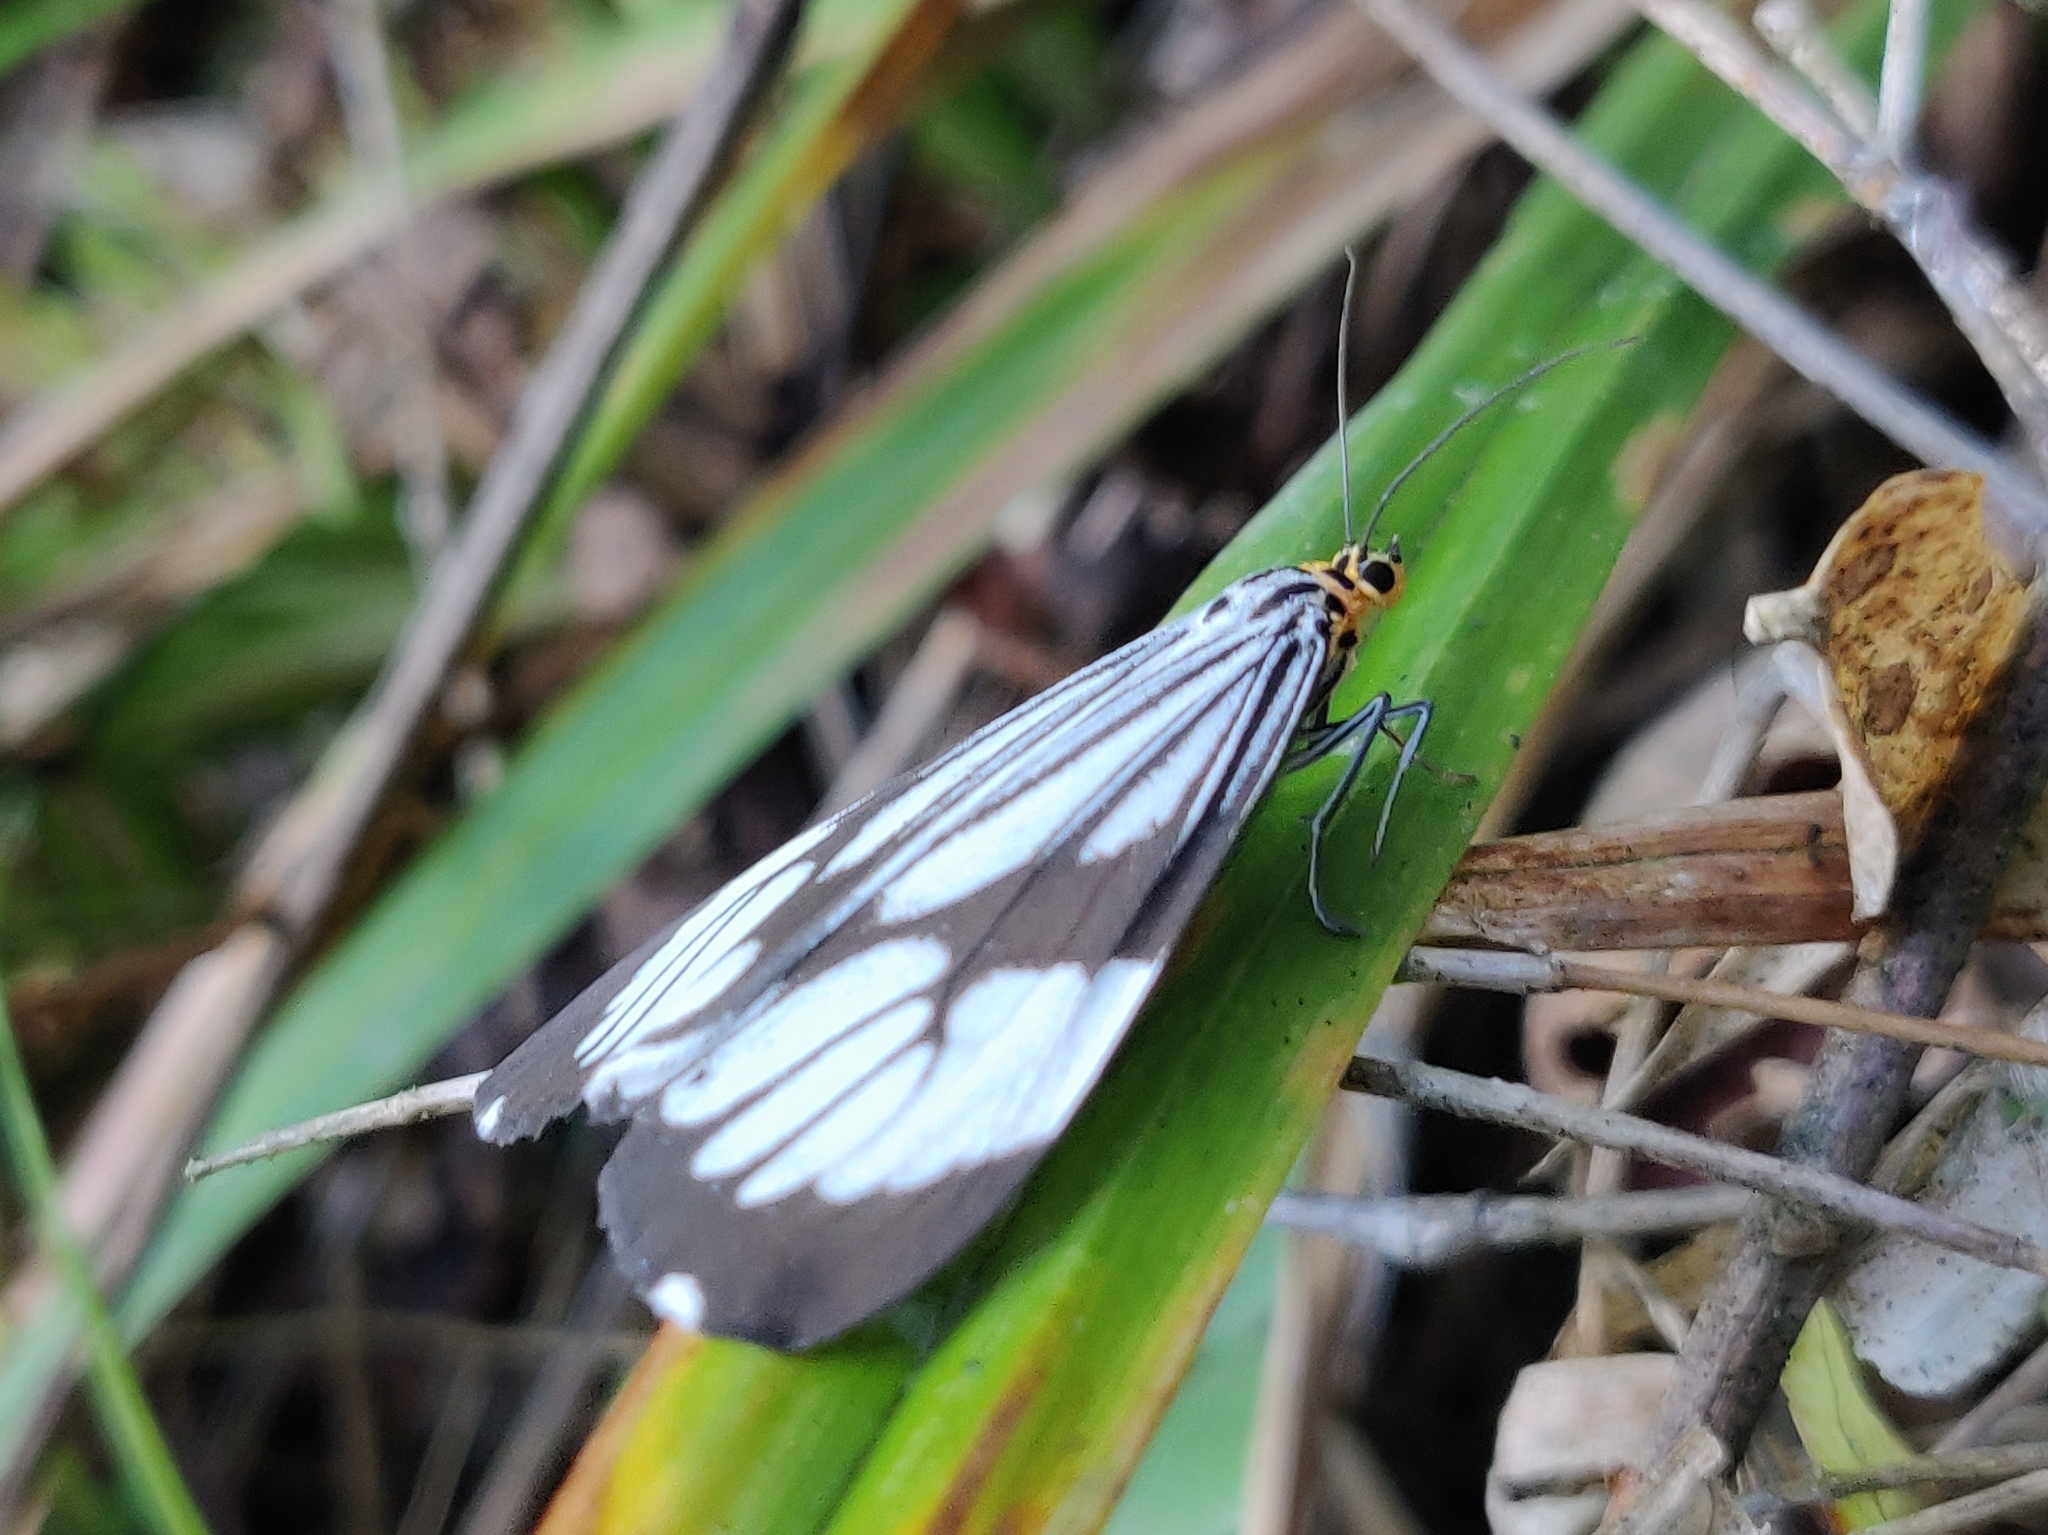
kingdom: Animalia
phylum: Arthropoda
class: Insecta
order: Lepidoptera
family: Erebidae
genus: Nyctemera
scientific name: Nyctemera coleta
